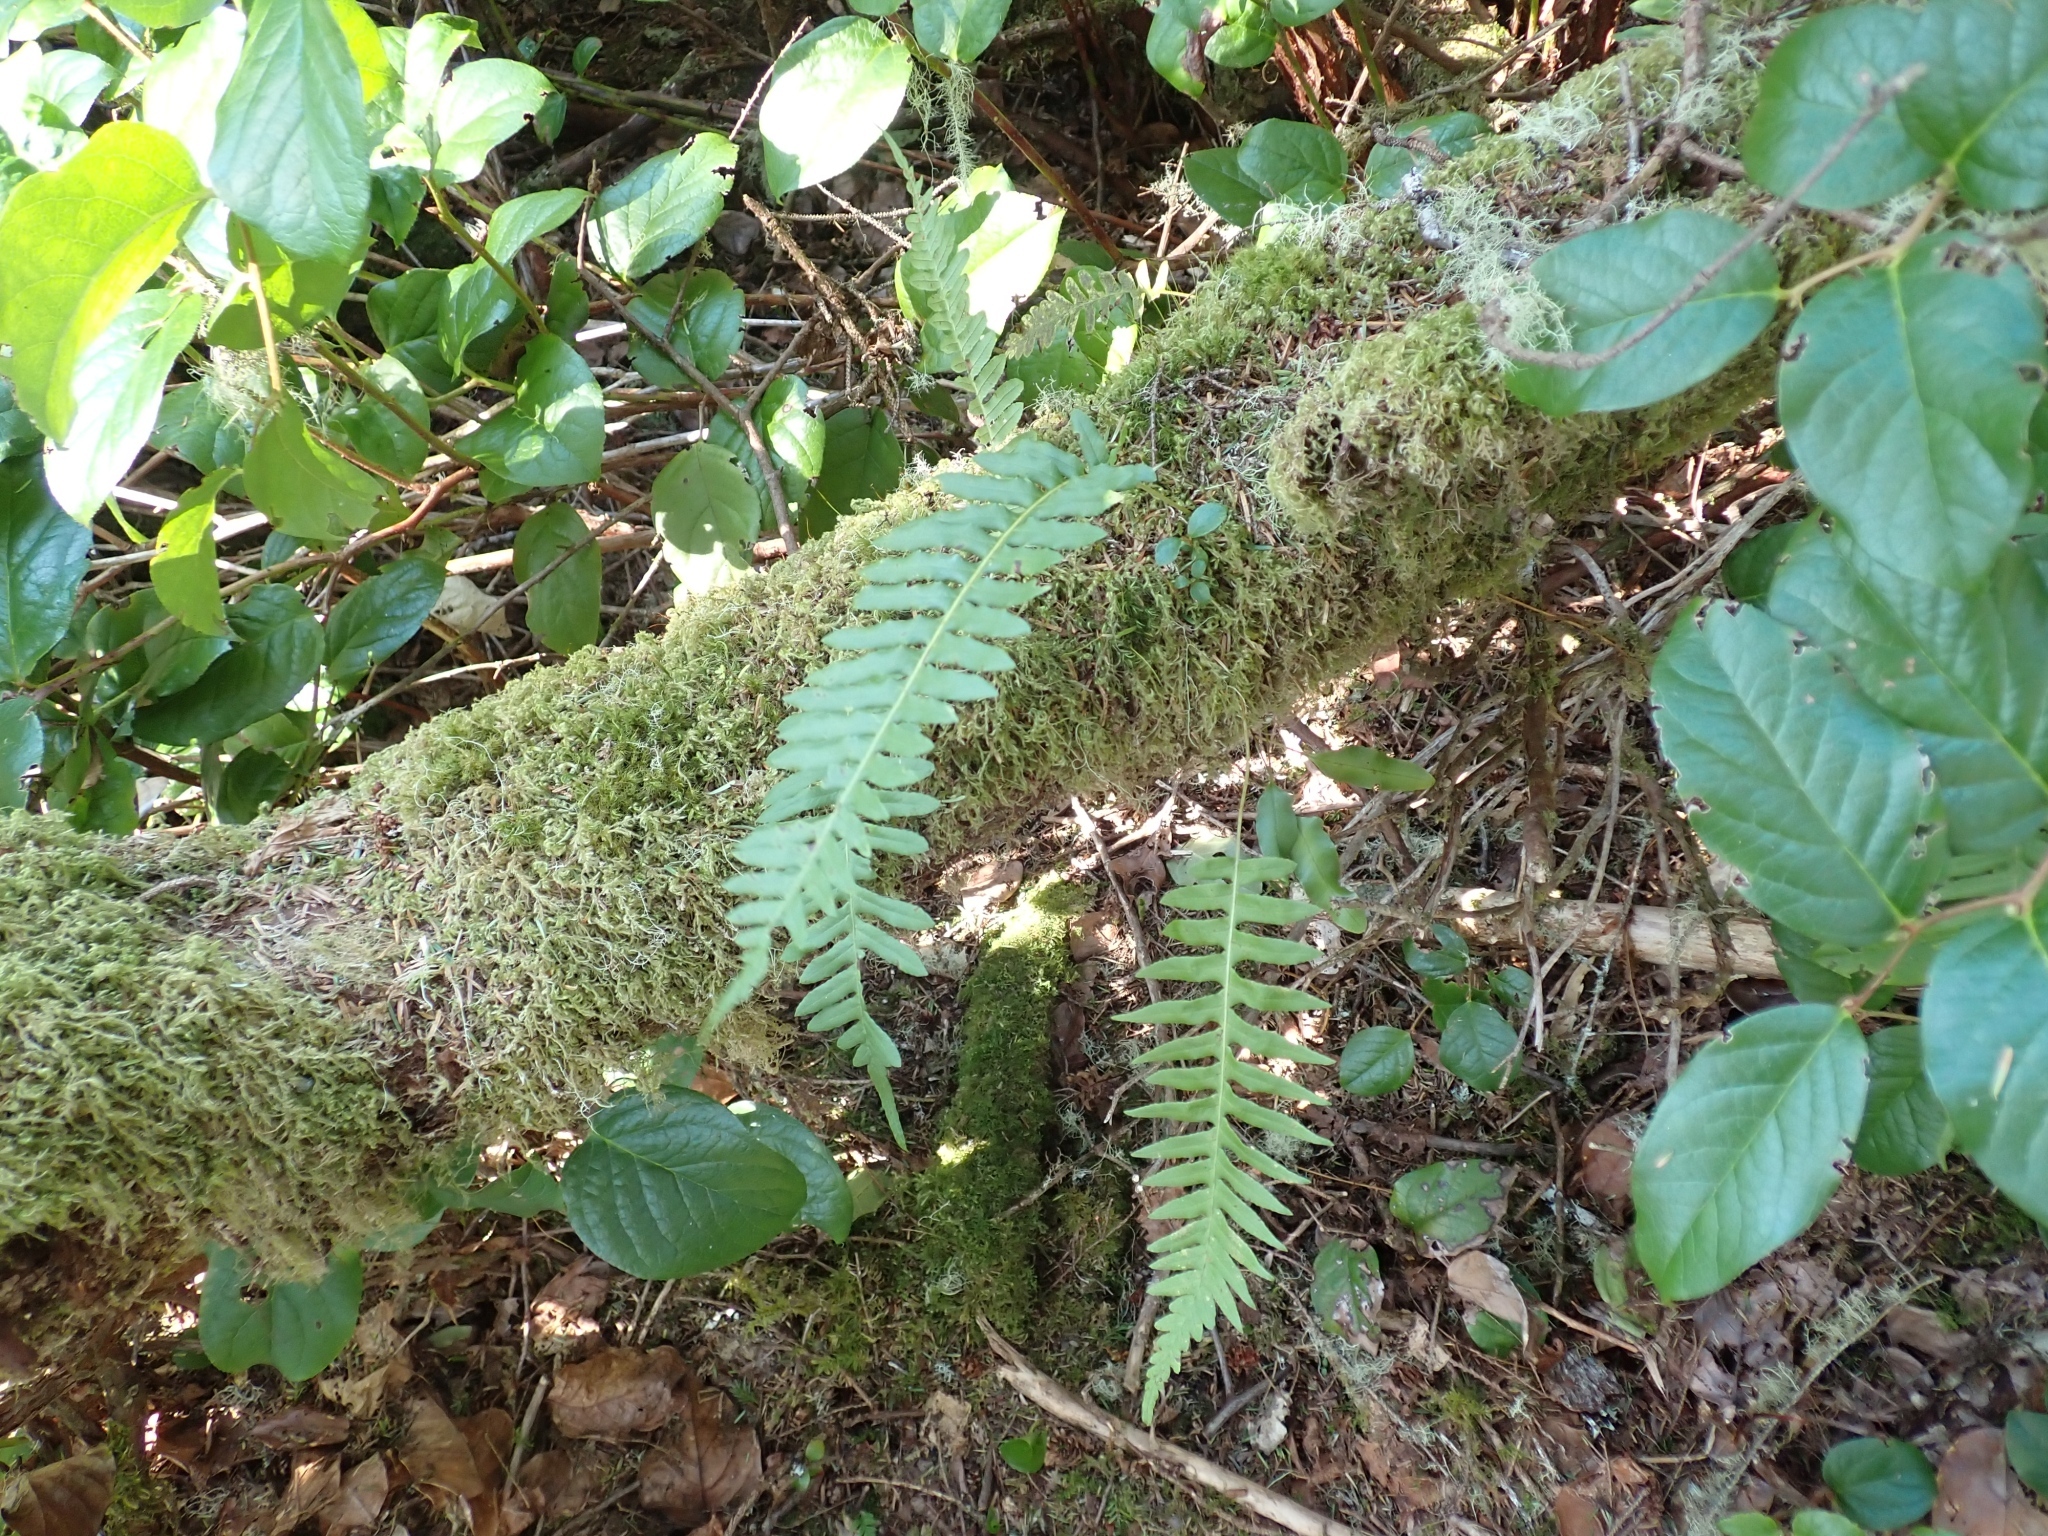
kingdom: Plantae
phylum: Tracheophyta
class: Polypodiopsida
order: Polypodiales
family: Polypodiaceae
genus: Polypodium
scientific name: Polypodium glycyrrhiza
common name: Licorice fern
